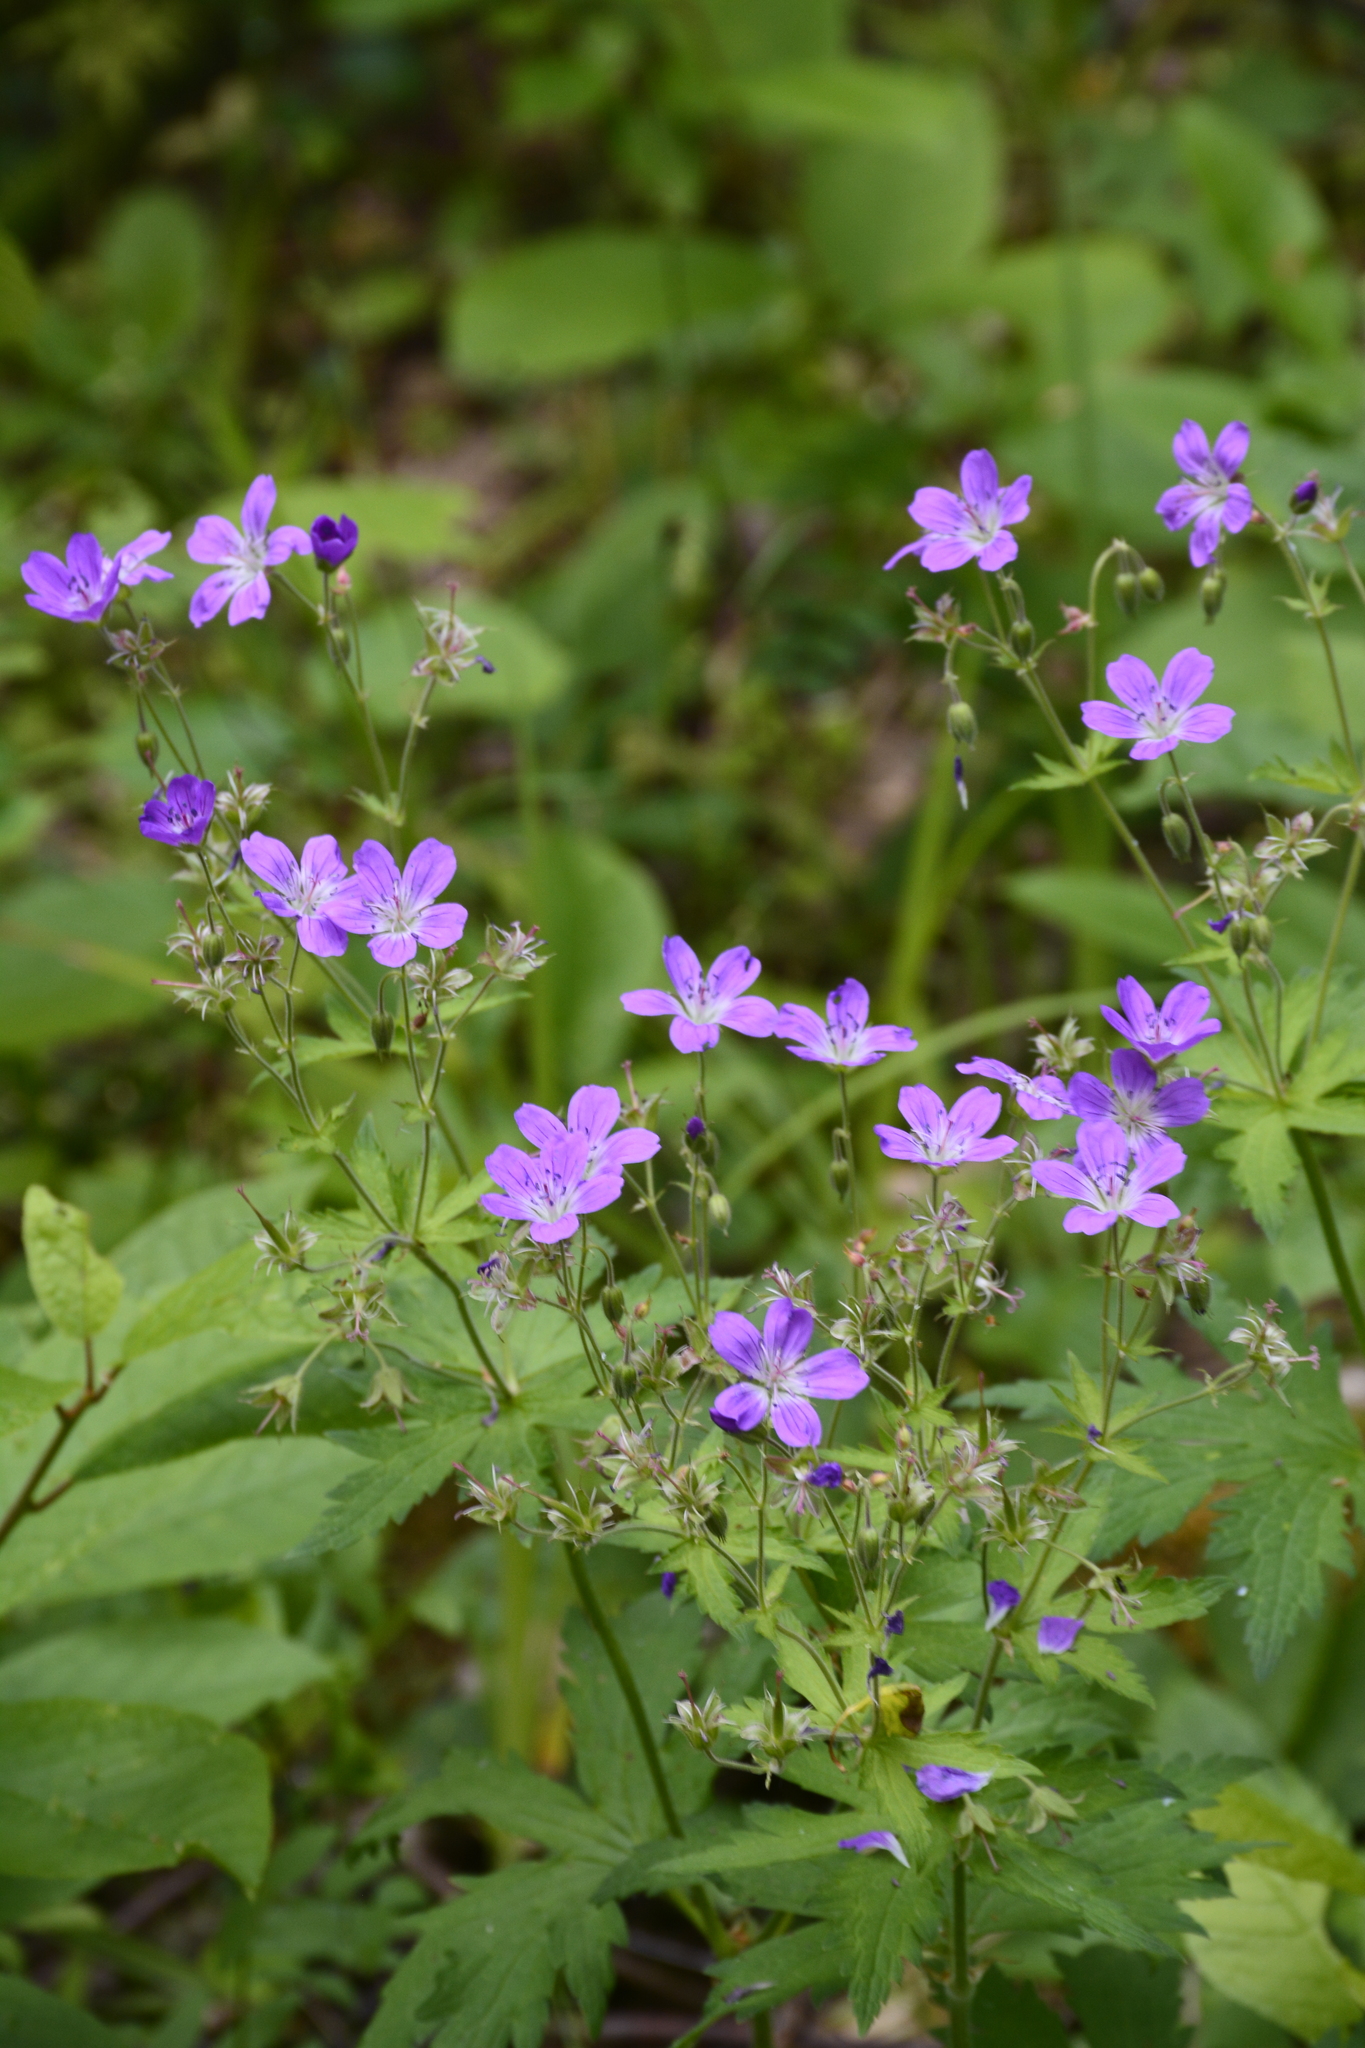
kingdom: Plantae
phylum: Tracheophyta
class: Magnoliopsida
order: Geraniales
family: Geraniaceae
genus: Geranium
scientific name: Geranium sylvaticum
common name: Wood crane's-bill
